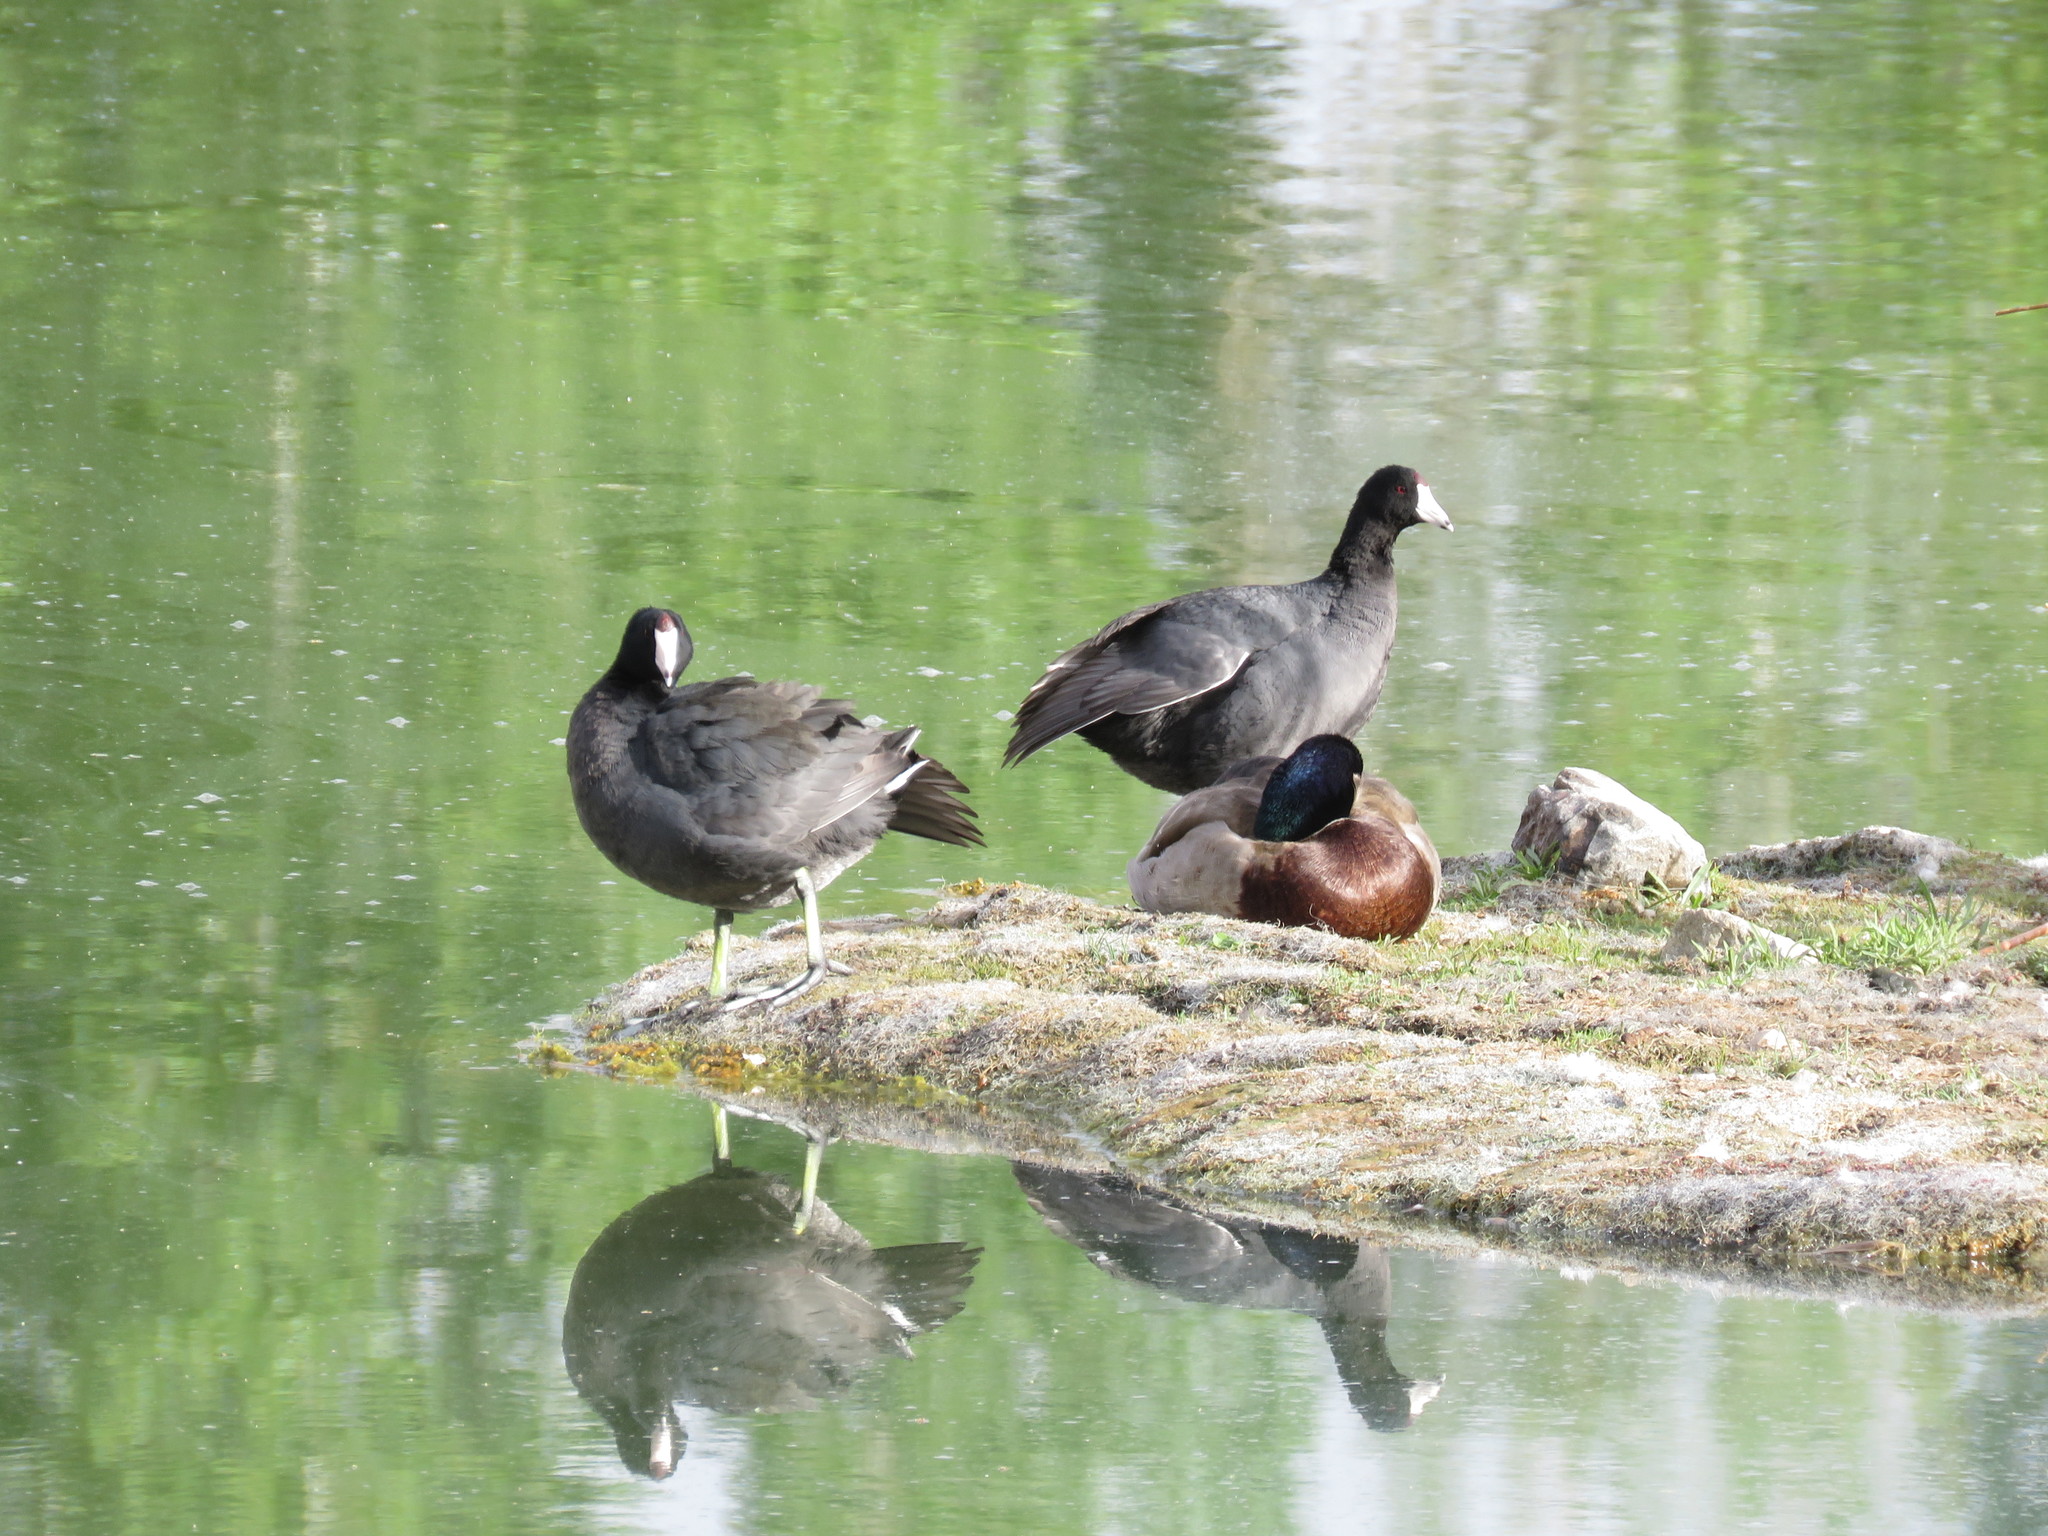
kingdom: Animalia
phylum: Chordata
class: Aves
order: Anseriformes
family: Anatidae
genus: Anas
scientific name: Anas platyrhynchos
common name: Mallard
